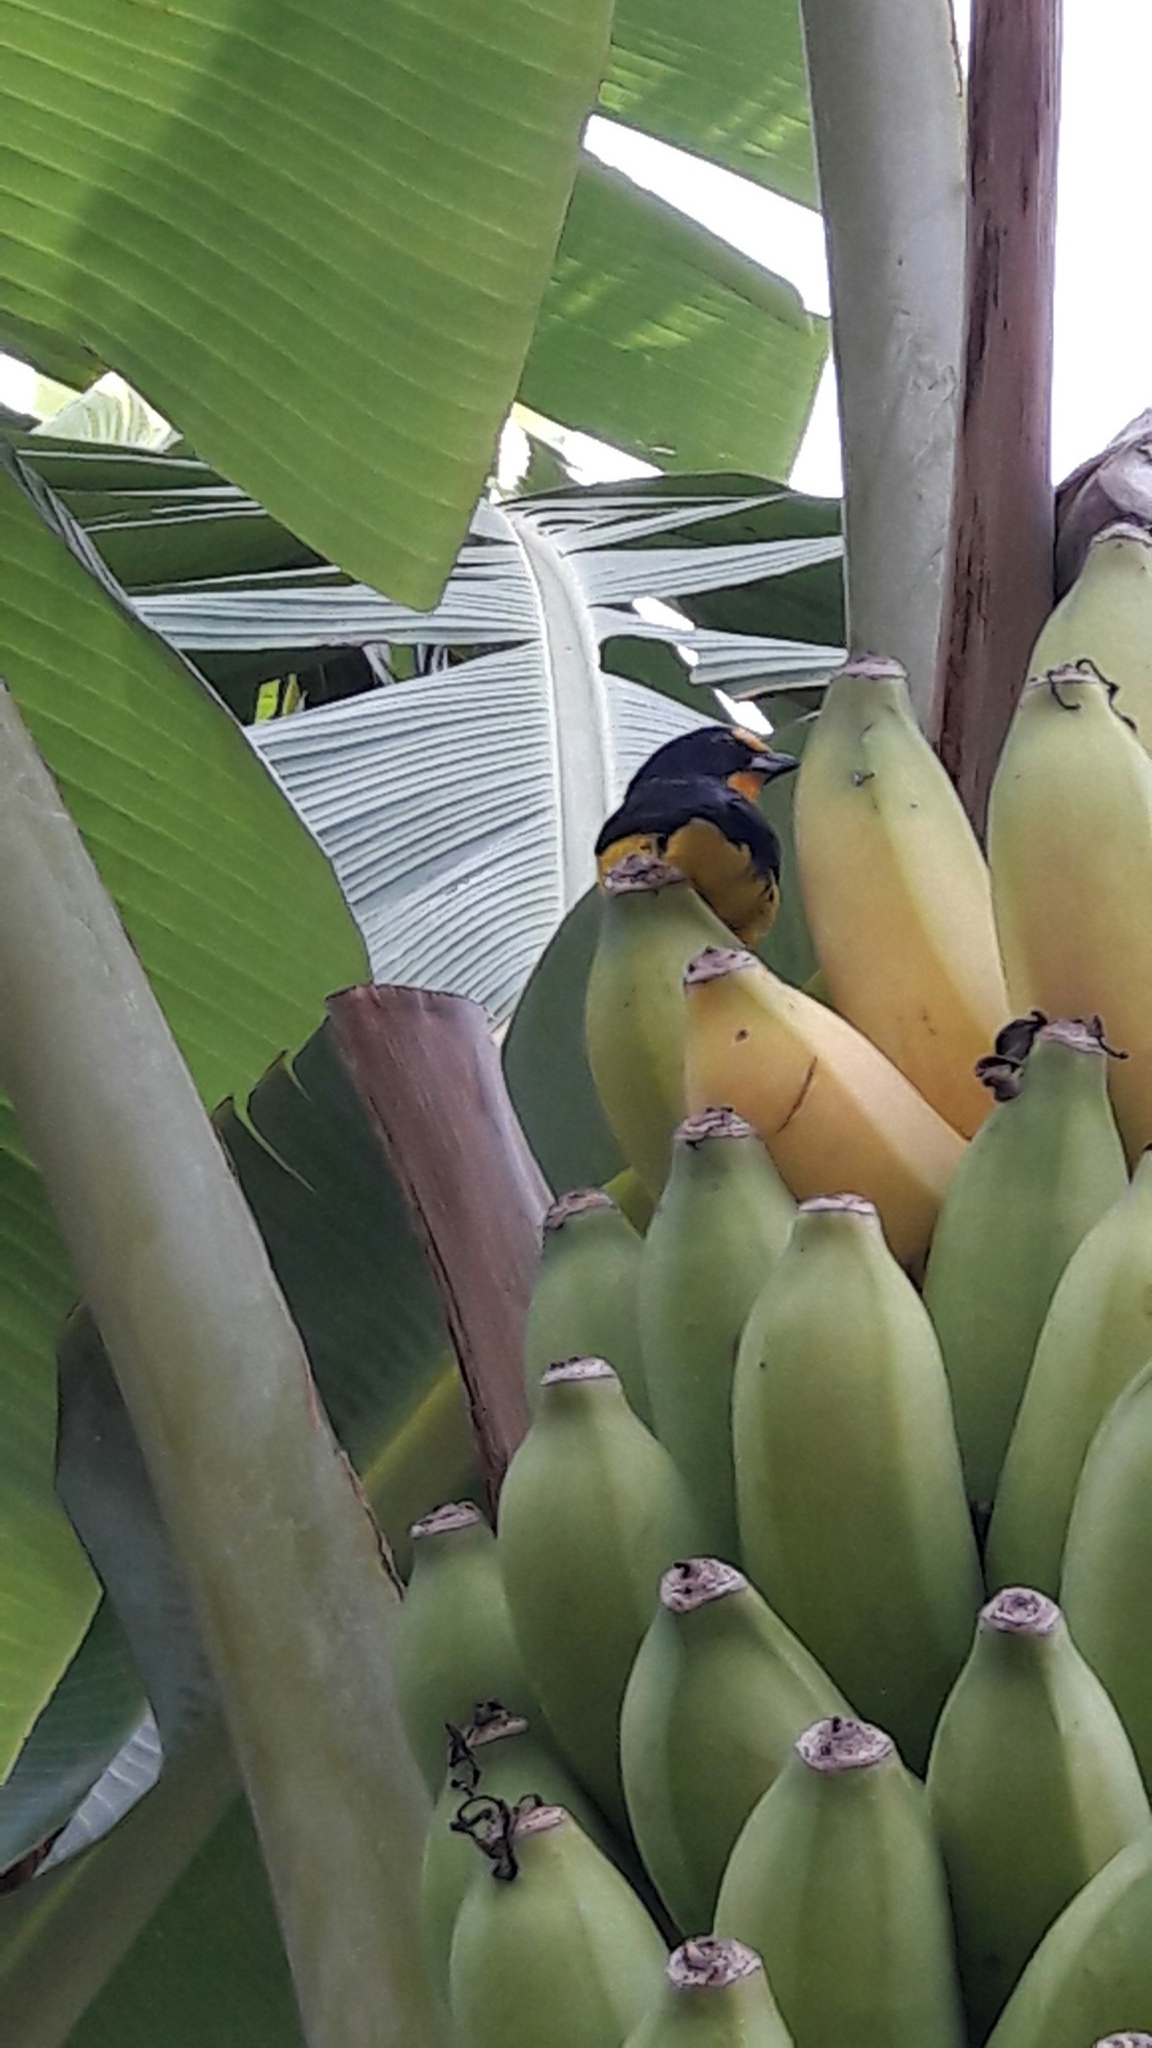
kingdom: Animalia
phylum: Chordata
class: Aves
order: Passeriformes
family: Fringillidae
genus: Euphonia
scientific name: Euphonia violacea
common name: Violaceous euphonia
